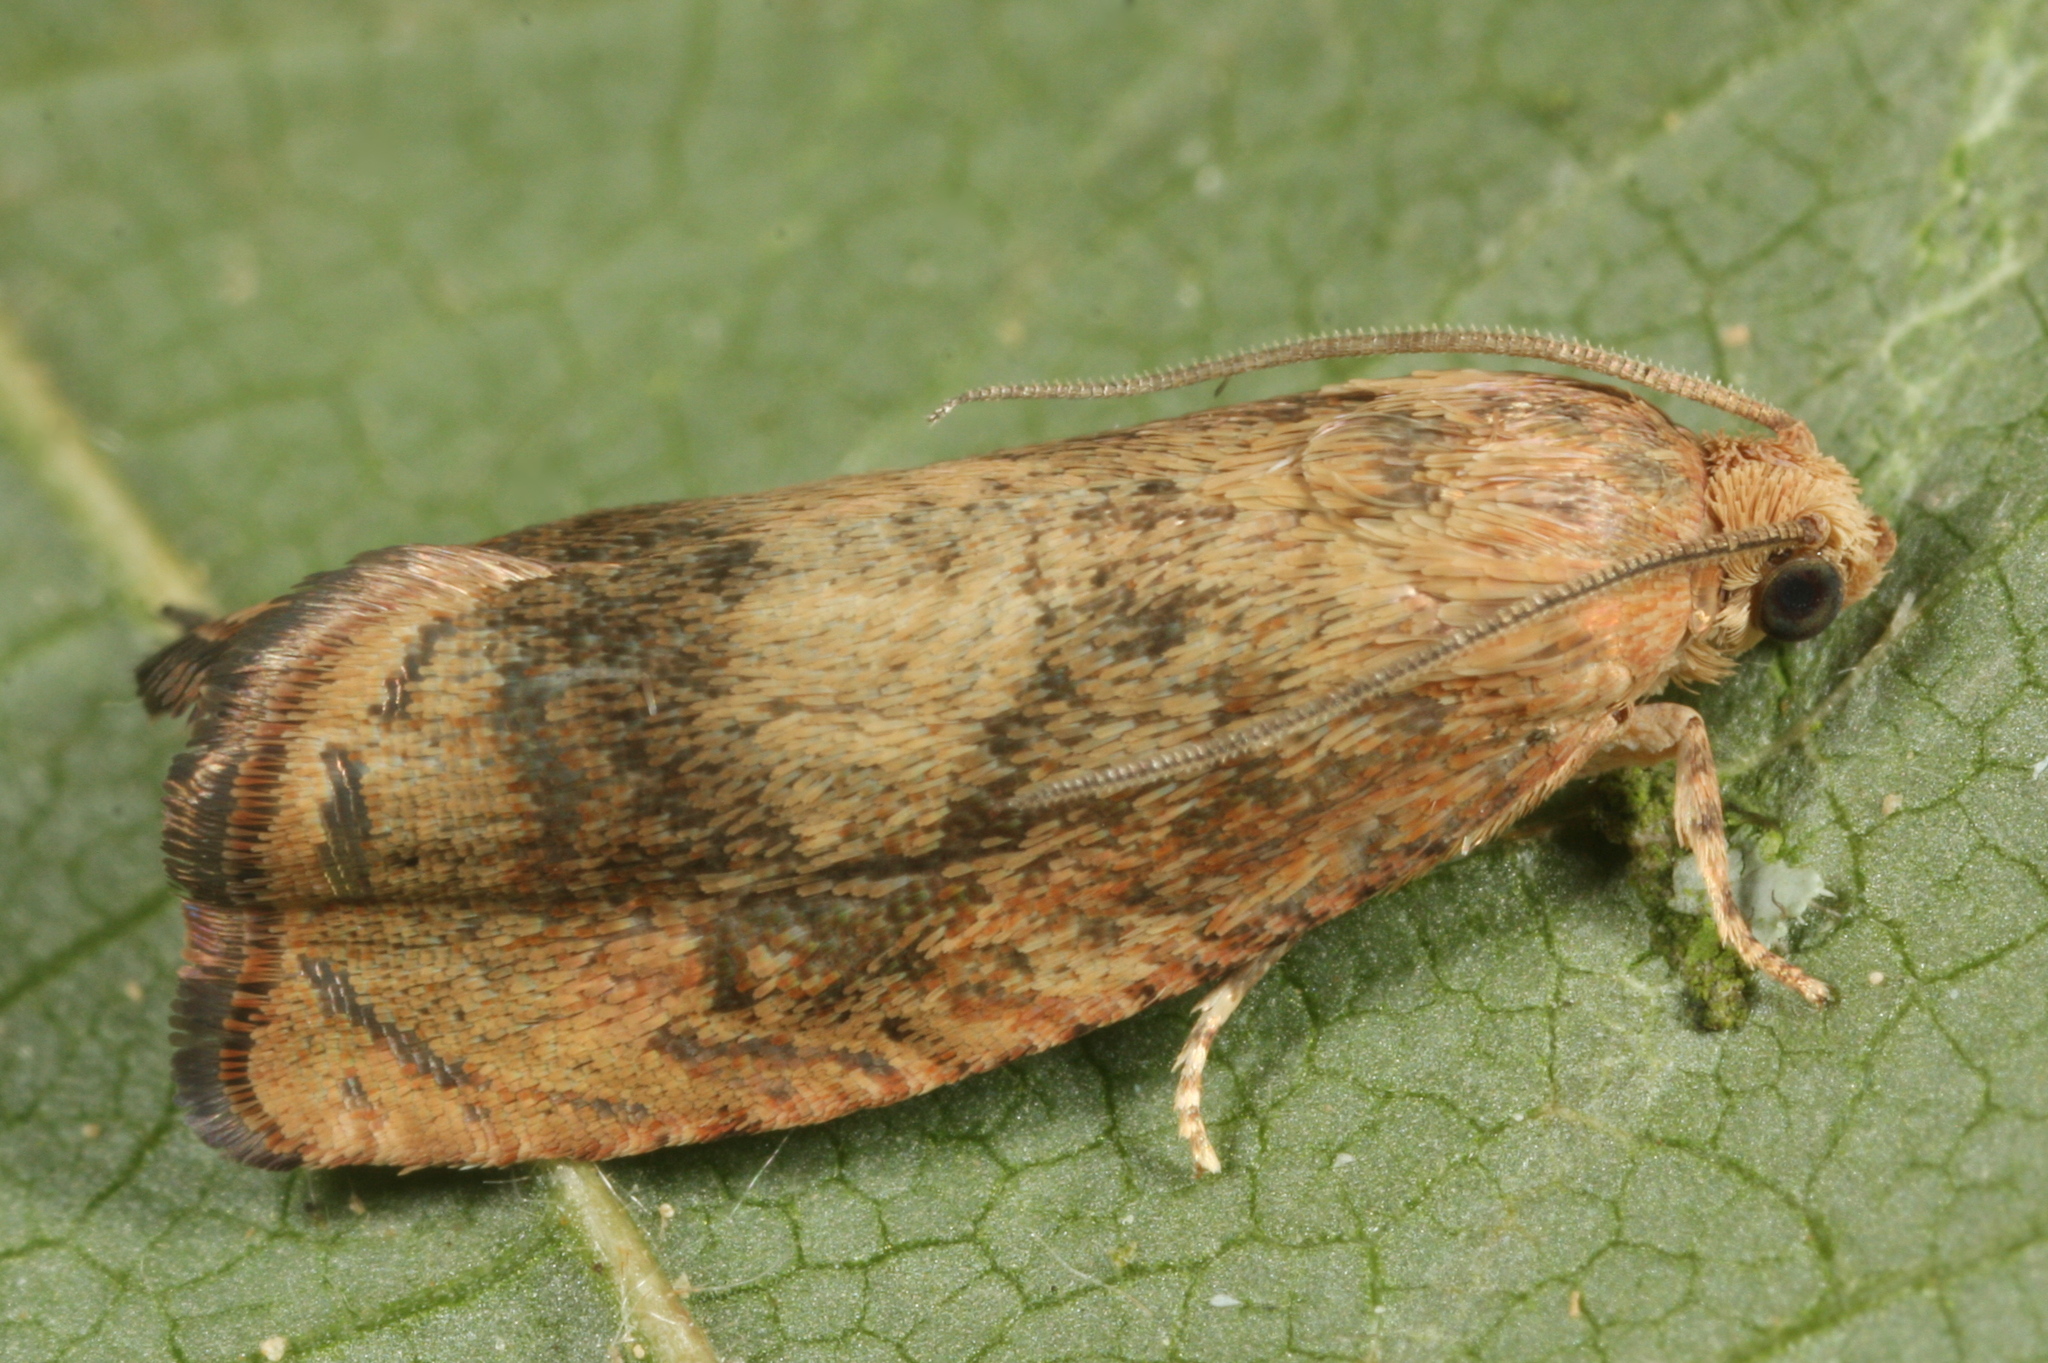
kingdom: Animalia
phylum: Arthropoda
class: Insecta
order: Lepidoptera
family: Tortricidae
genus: Cydia
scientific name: Cydia amplana
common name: Vagrant piercer
